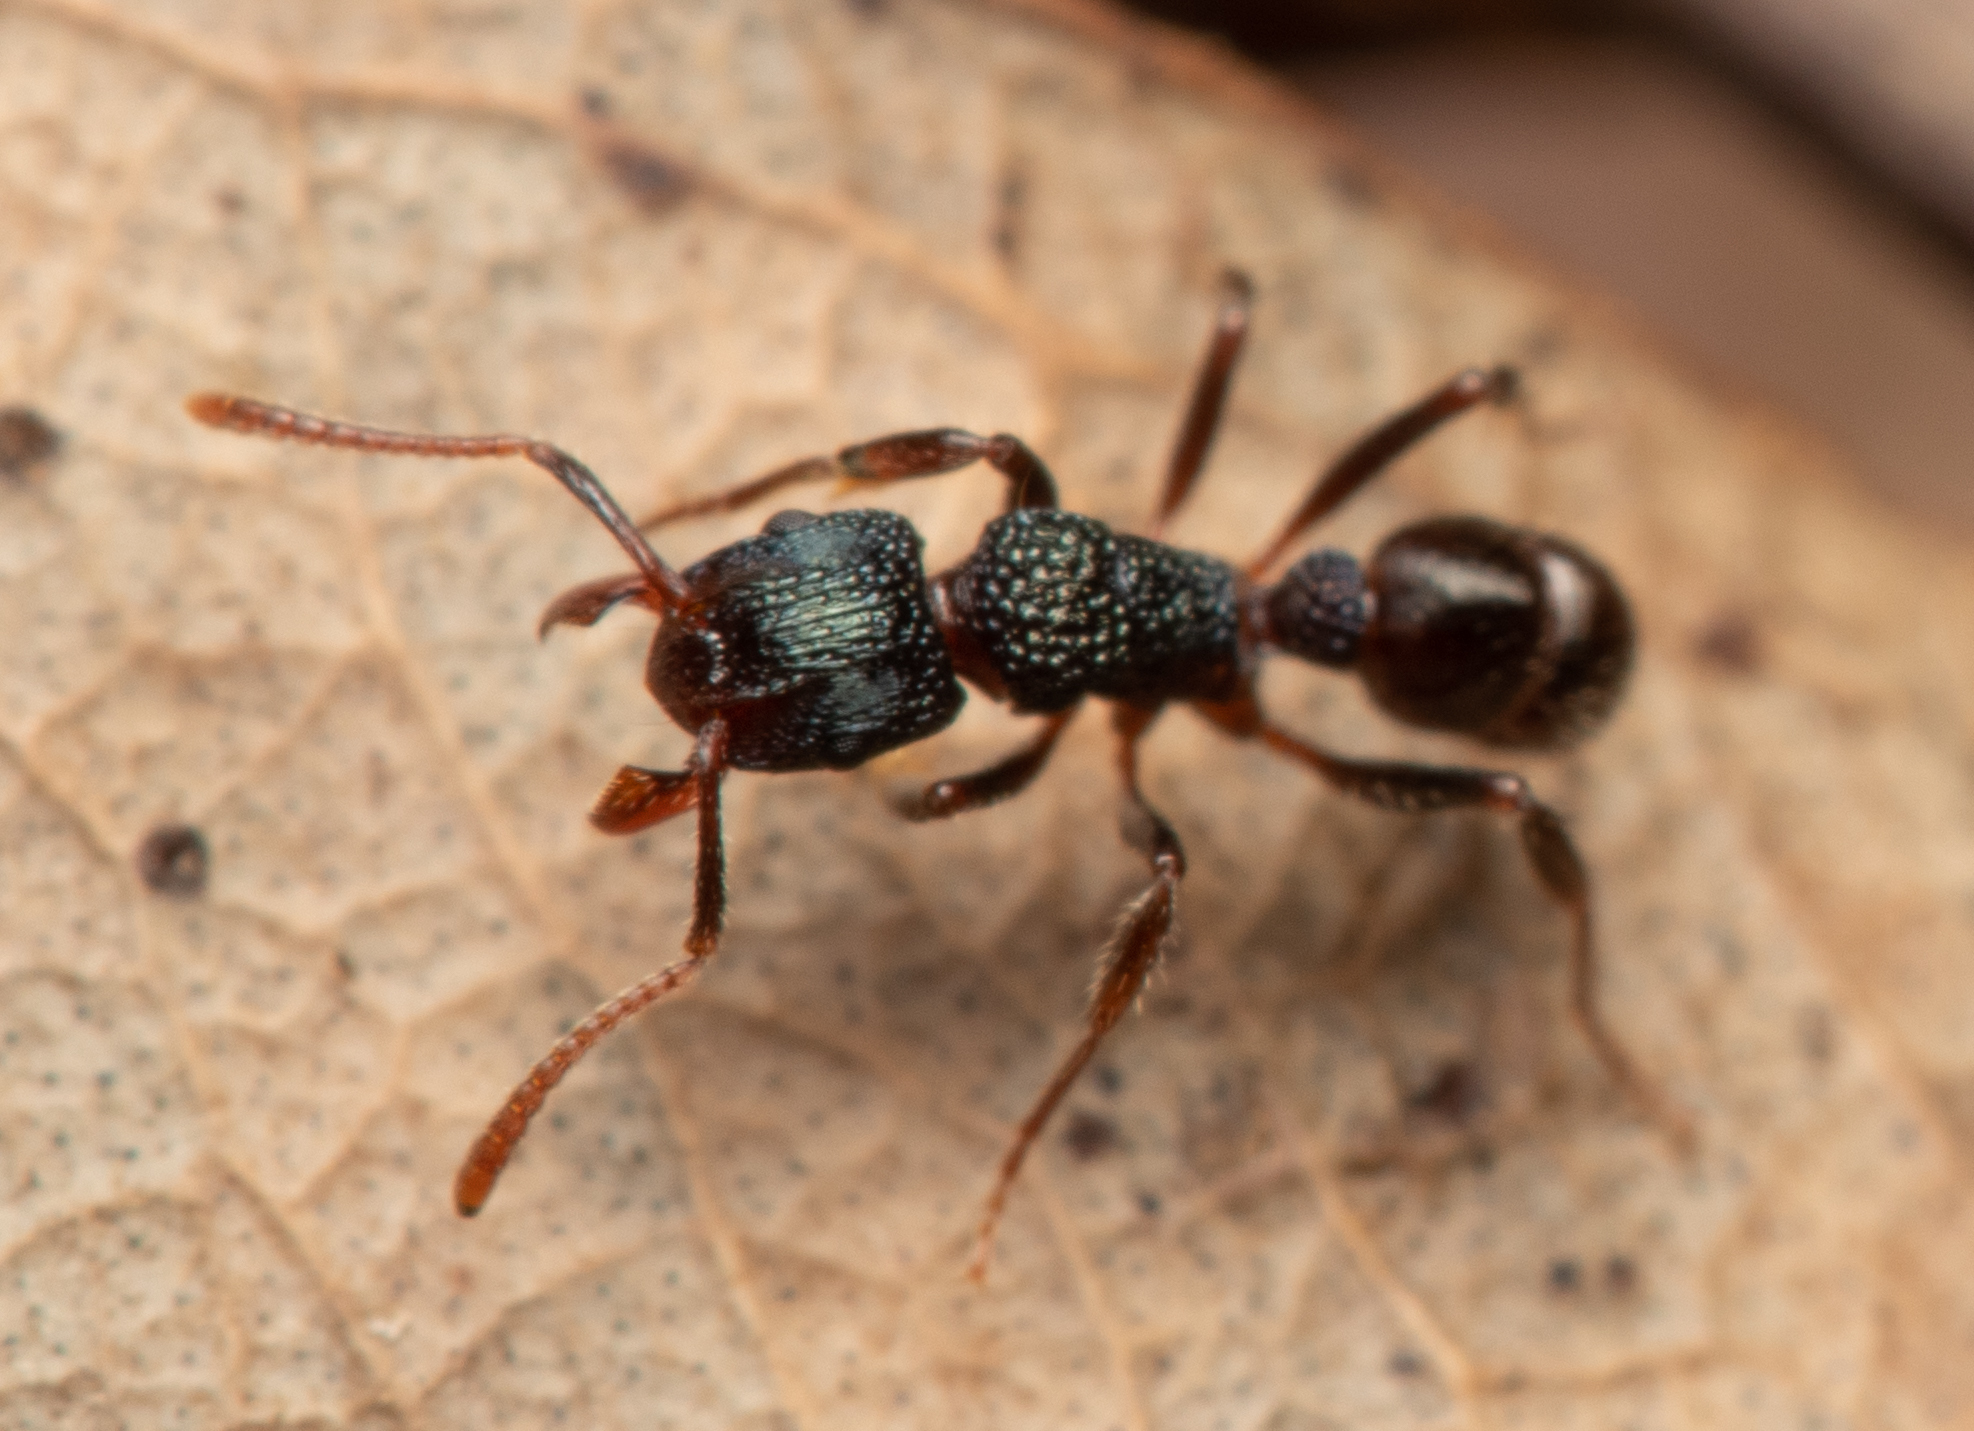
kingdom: Animalia
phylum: Arthropoda
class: Insecta
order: Hymenoptera
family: Formicidae
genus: Rhytidoponera
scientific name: Rhytidoponera victoriae
